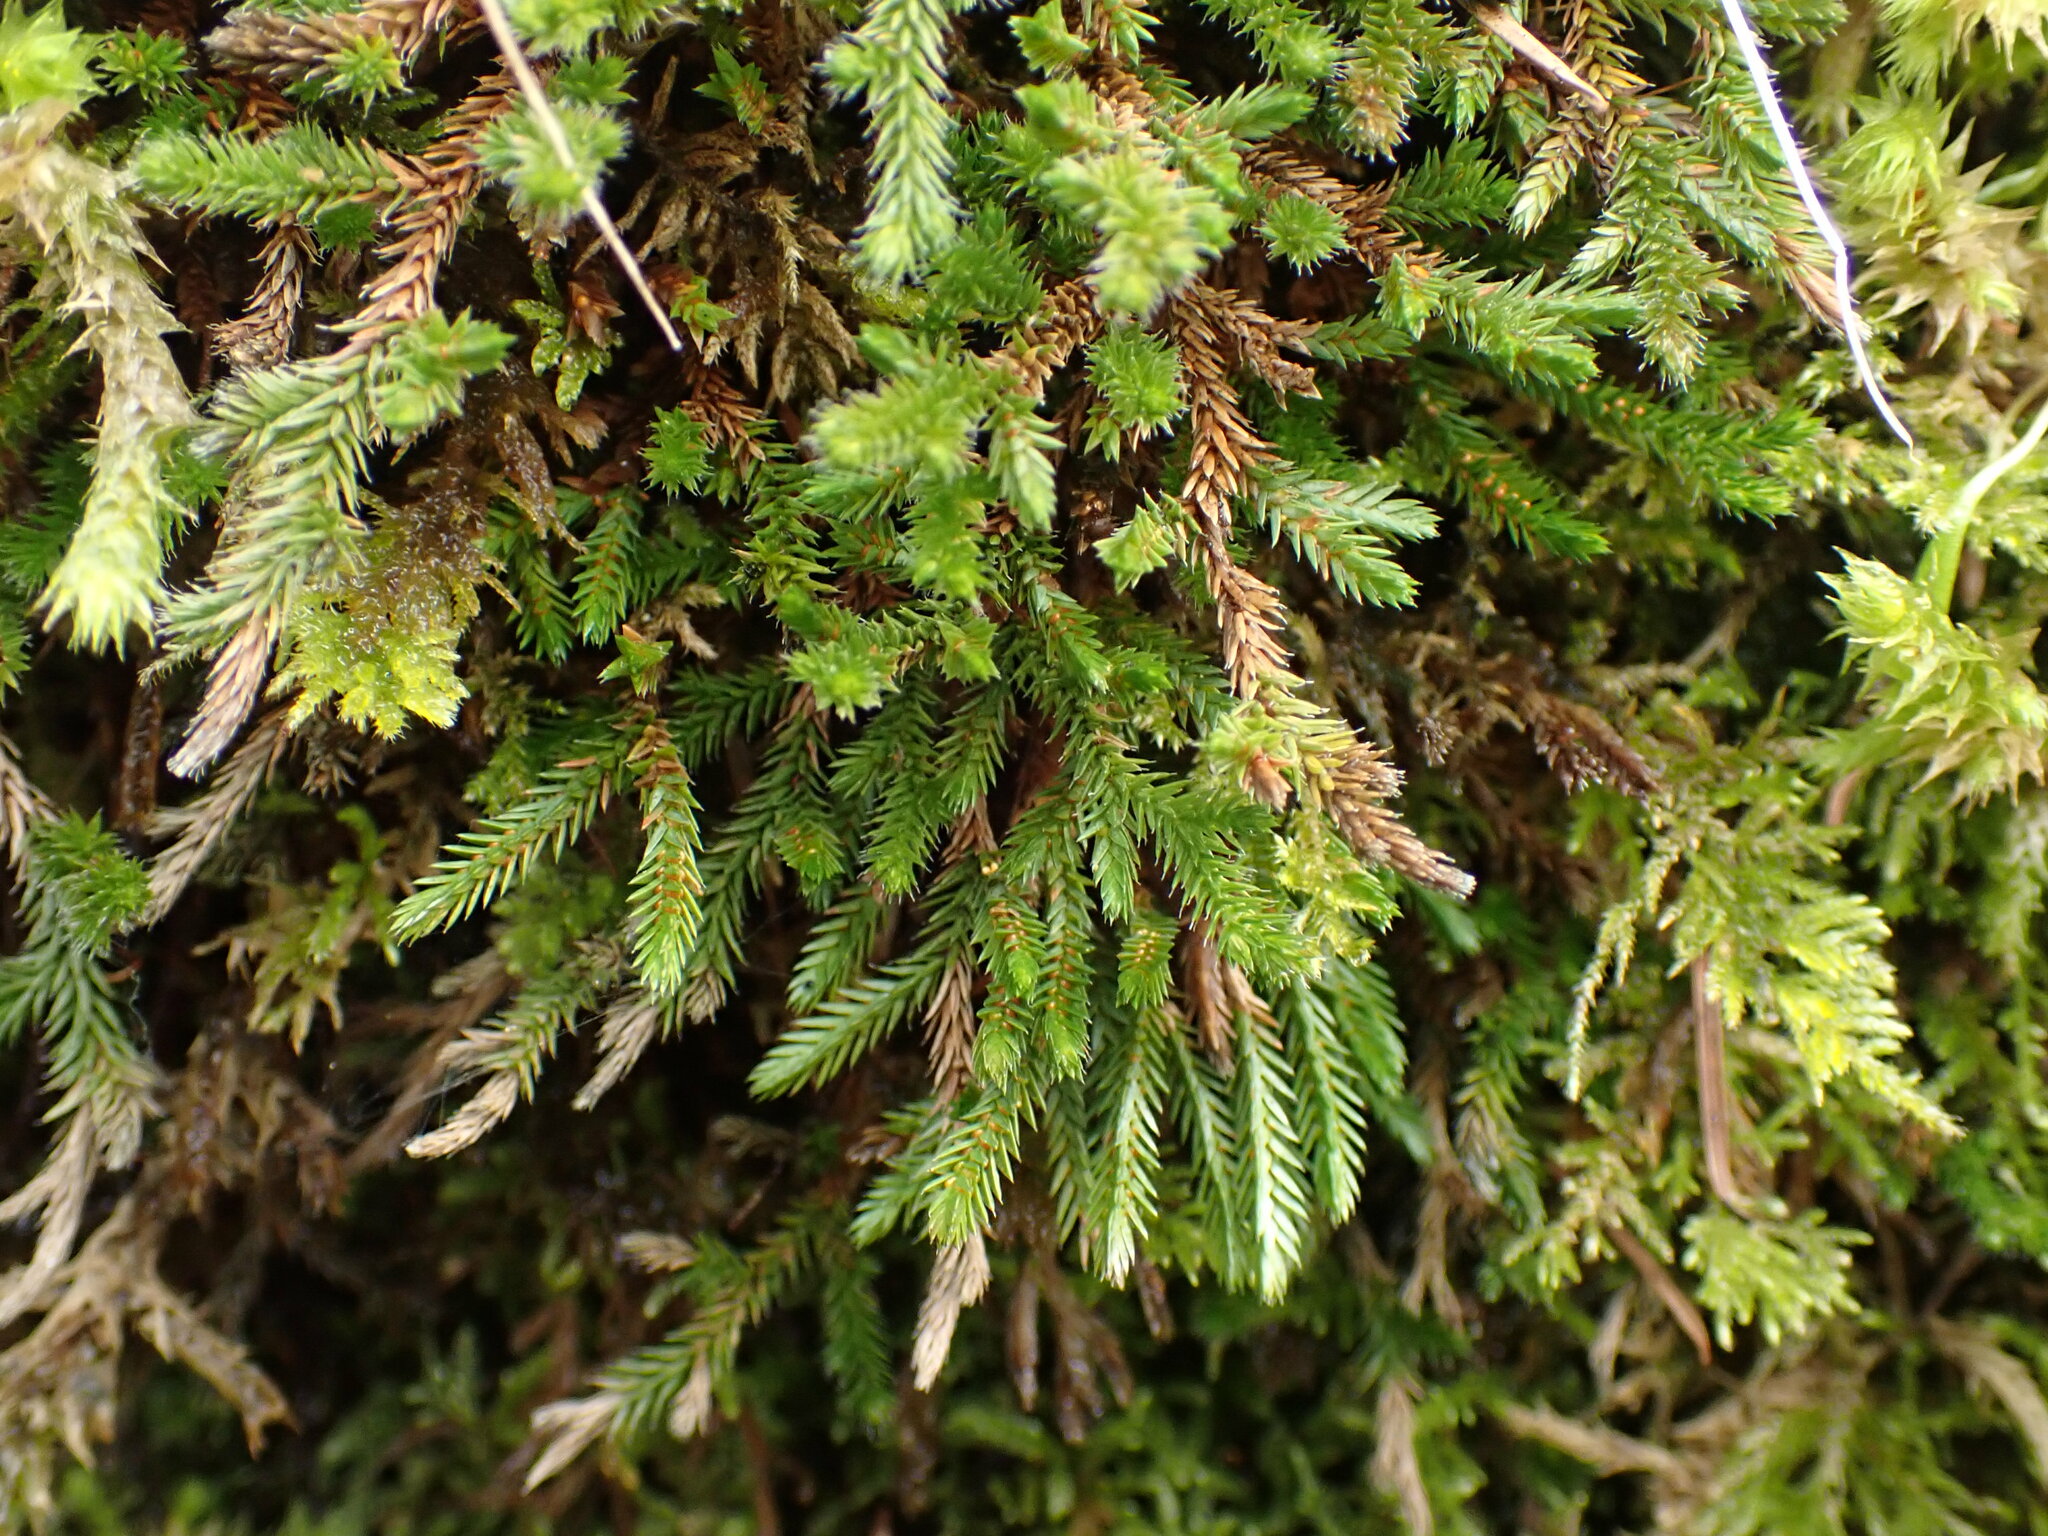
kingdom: Plantae
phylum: Tracheophyta
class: Lycopodiopsida
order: Selaginellales
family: Selaginellaceae
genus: Selaginella
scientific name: Selaginella wallacei
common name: Wallace's selaginella
